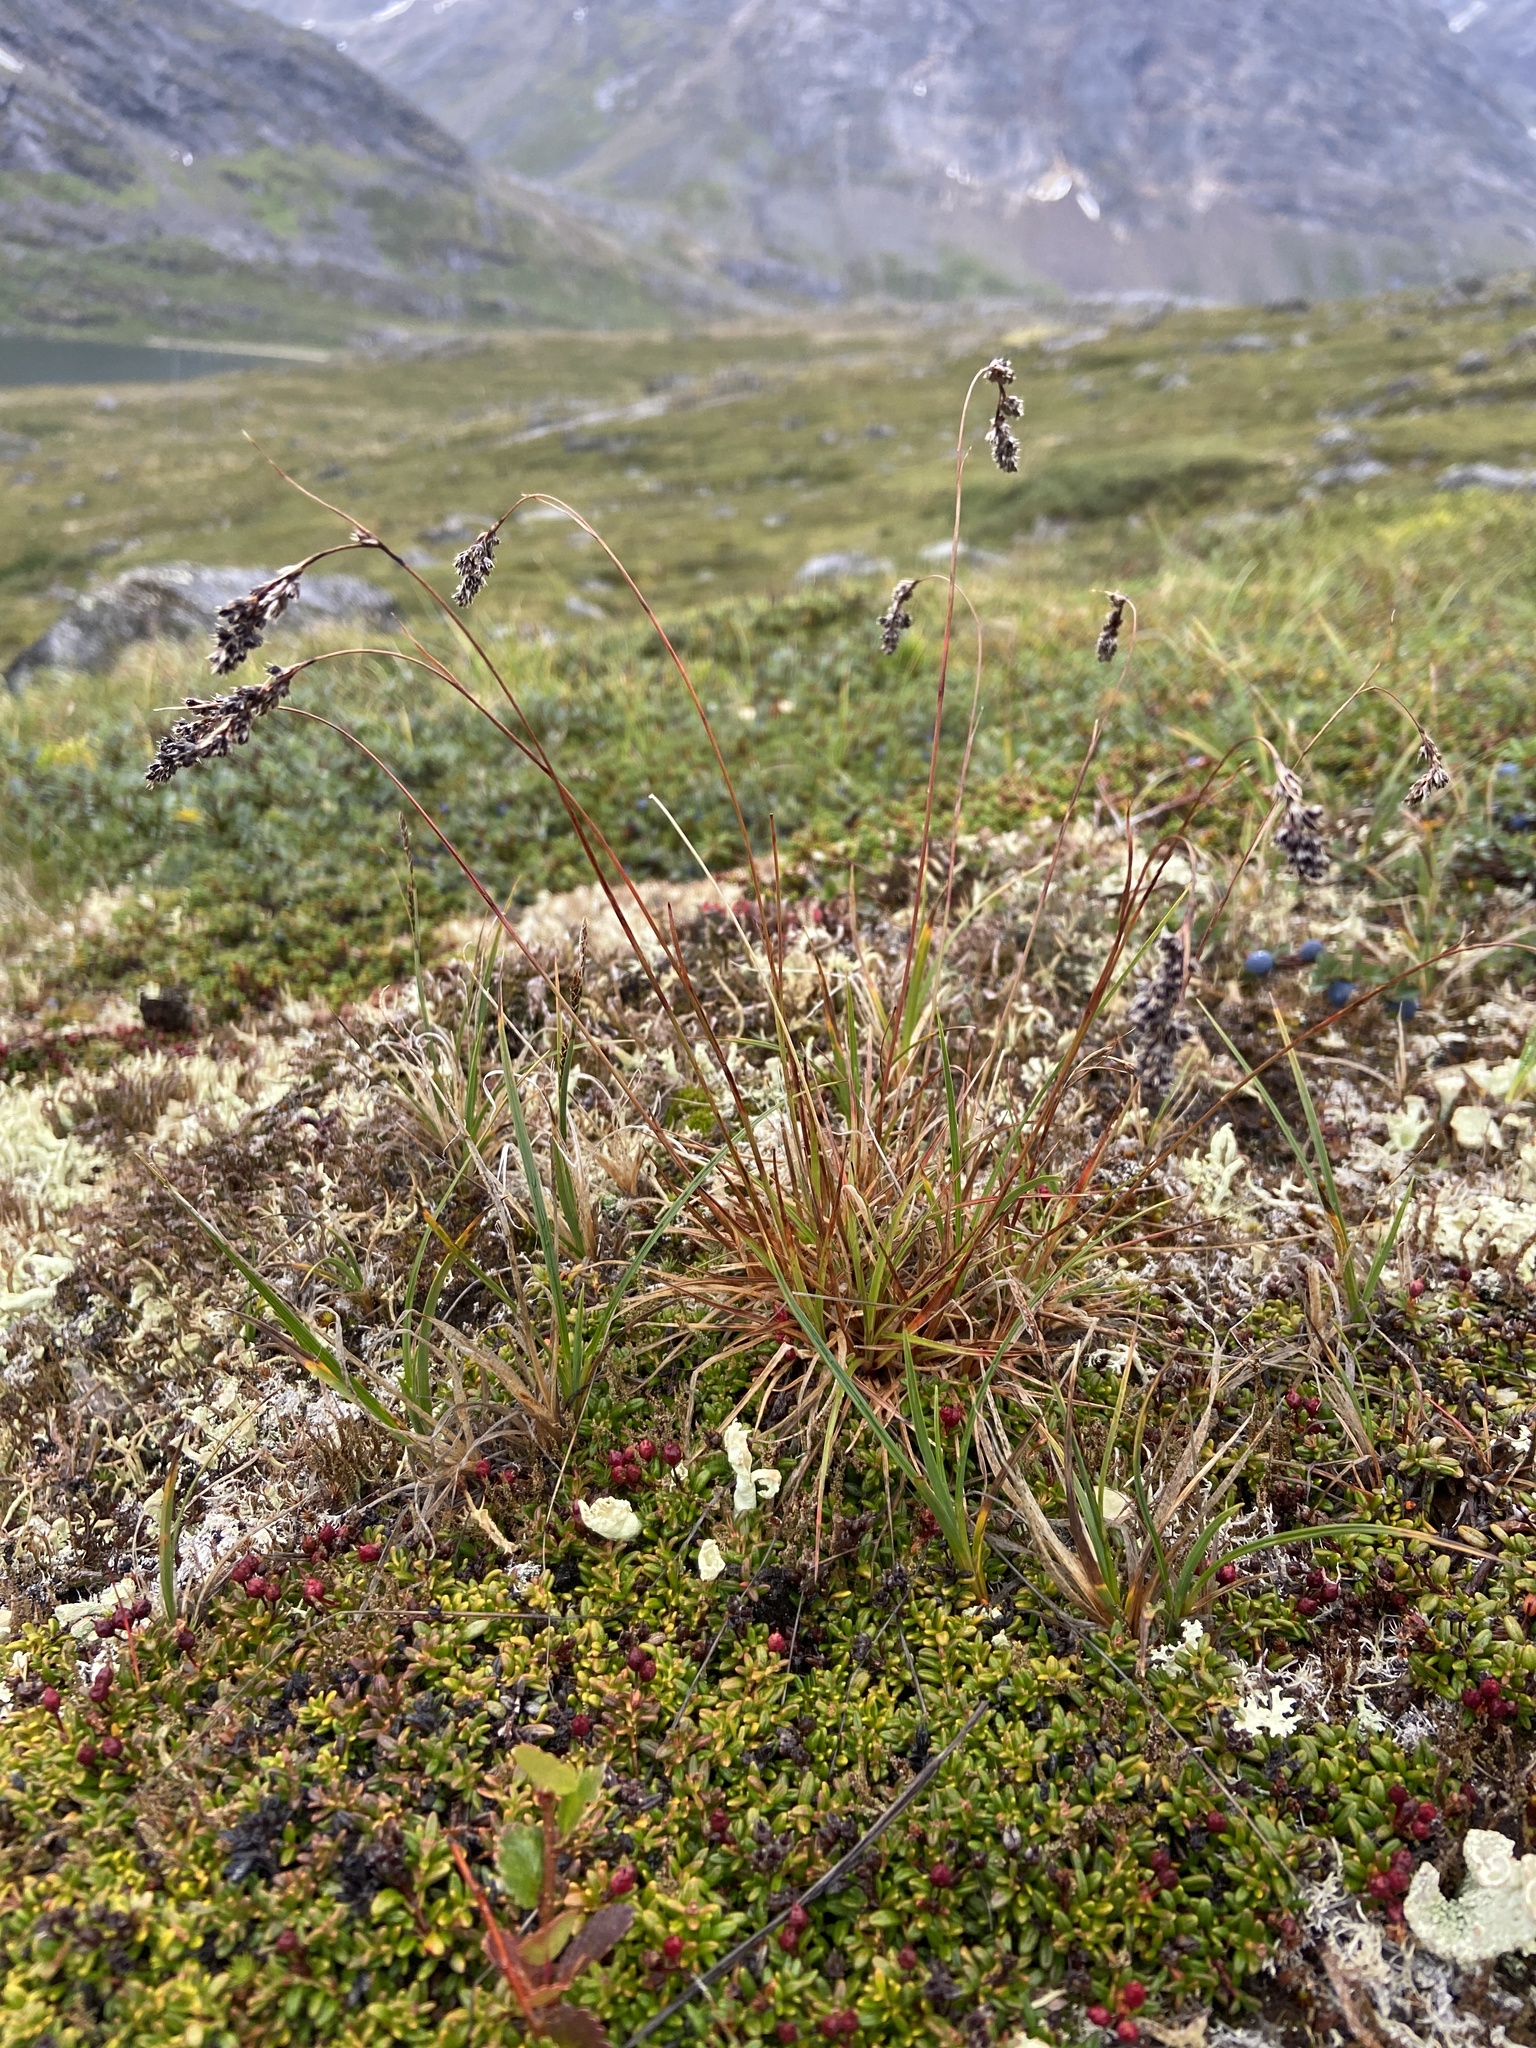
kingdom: Plantae
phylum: Tracheophyta
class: Liliopsida
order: Poales
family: Juncaceae
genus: Luzula
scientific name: Luzula spicata
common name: Spiked wood-rush
